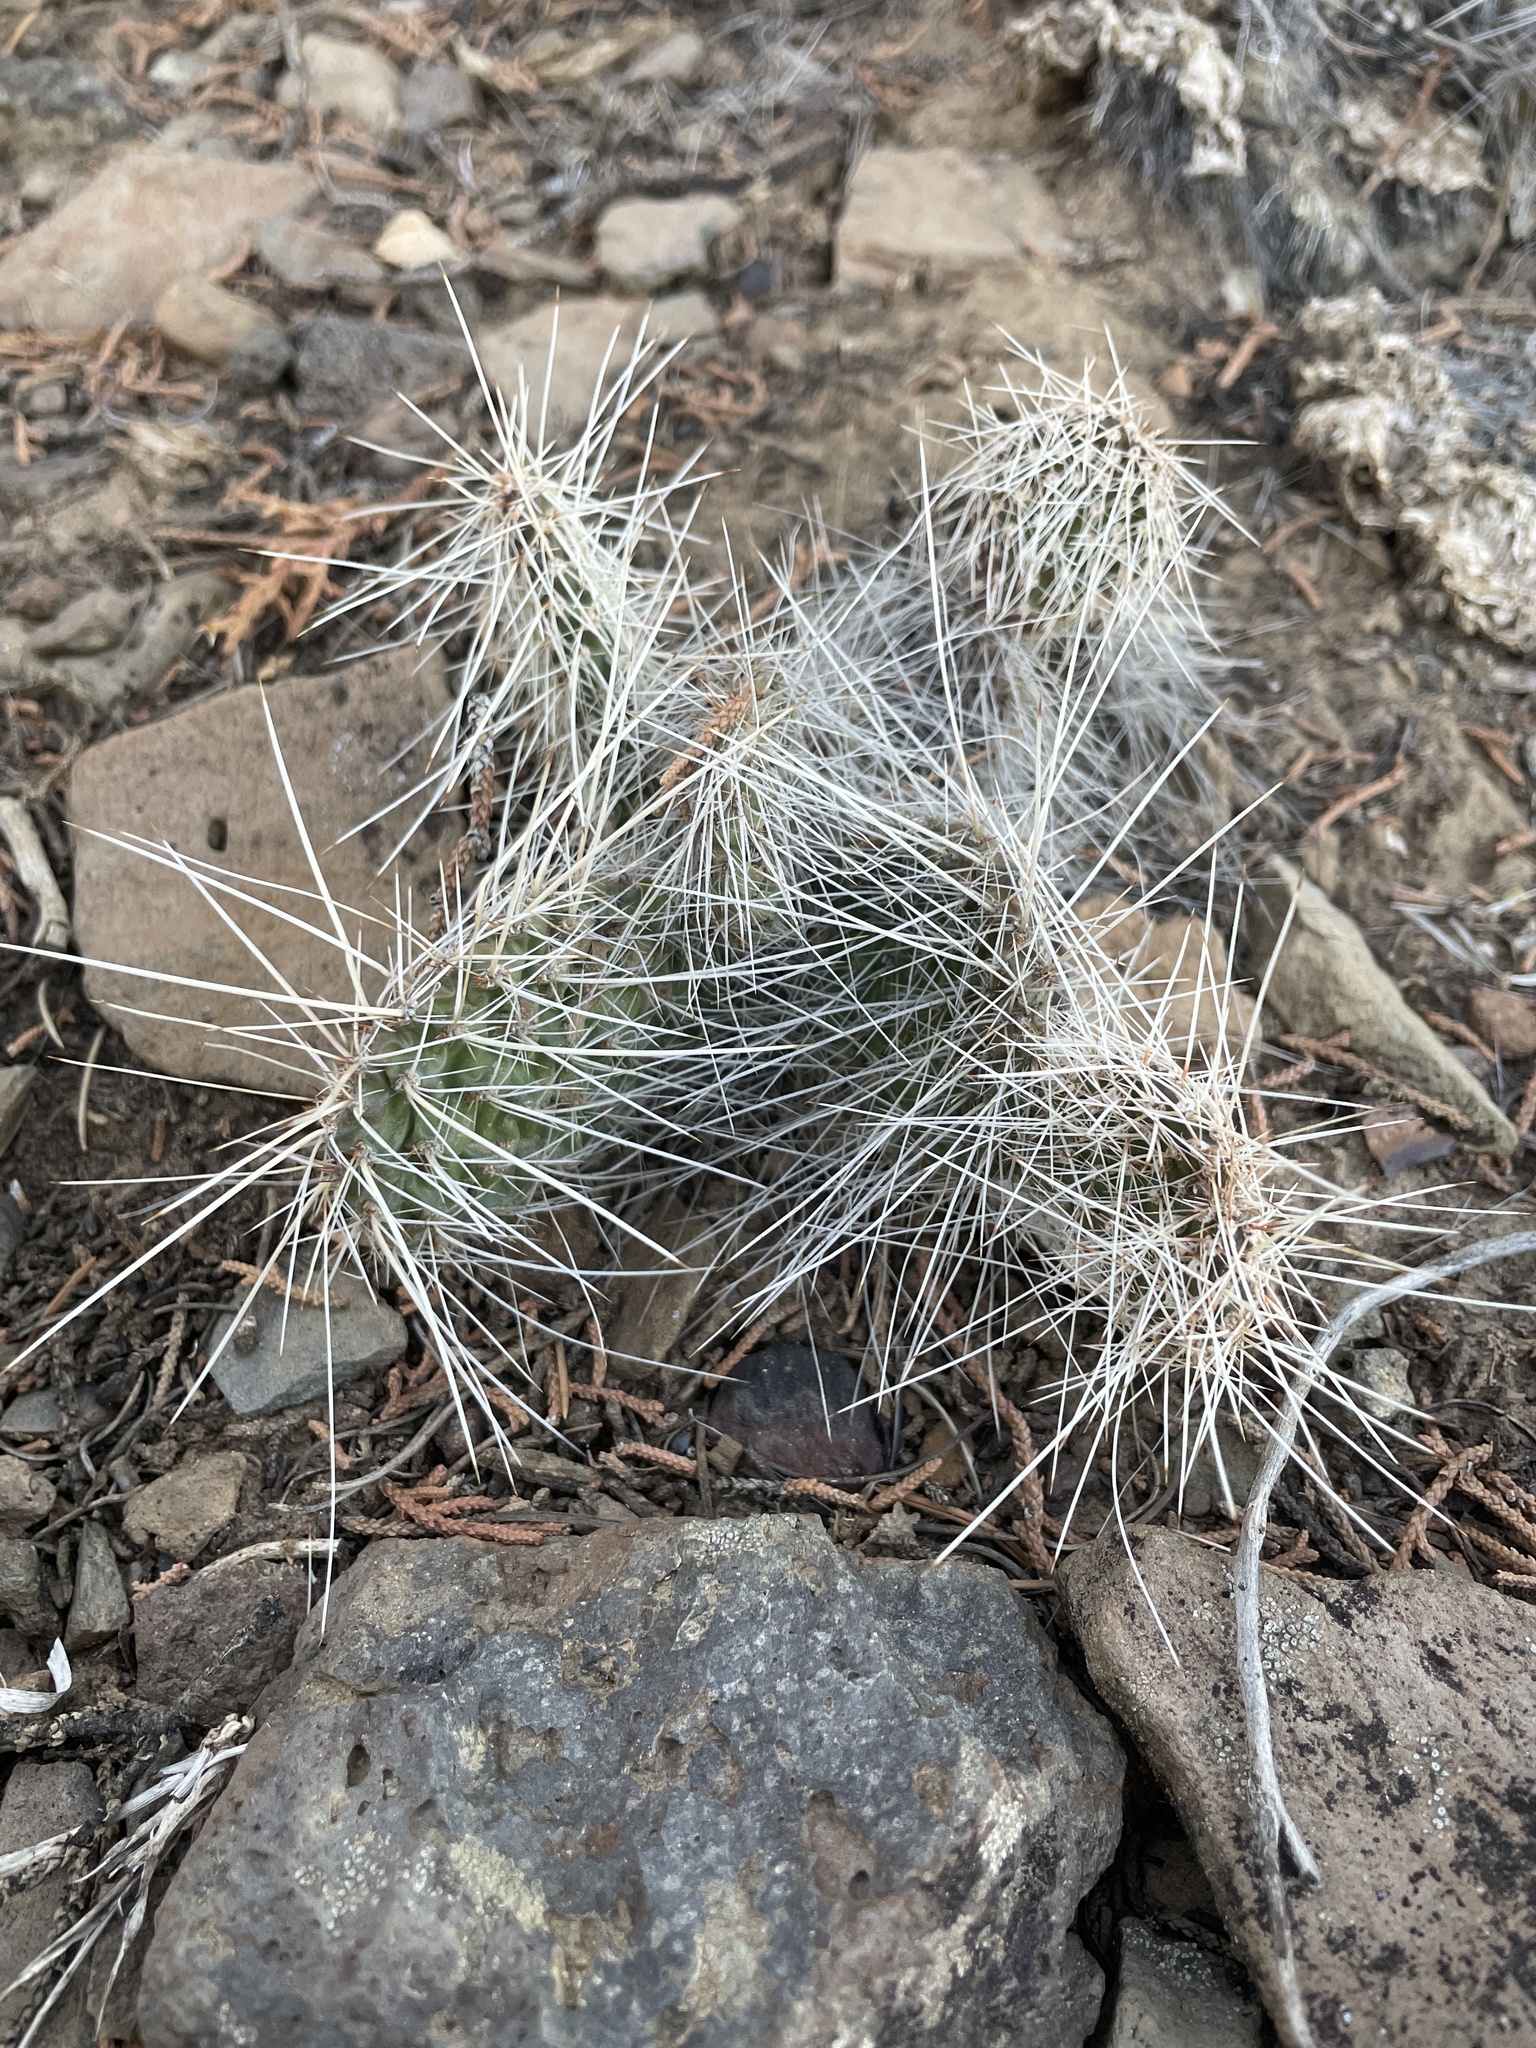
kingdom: Plantae
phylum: Tracheophyta
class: Magnoliopsida
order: Caryophyllales
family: Cactaceae
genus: Opuntia
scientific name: Opuntia polyacantha
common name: Plains prickly-pear
